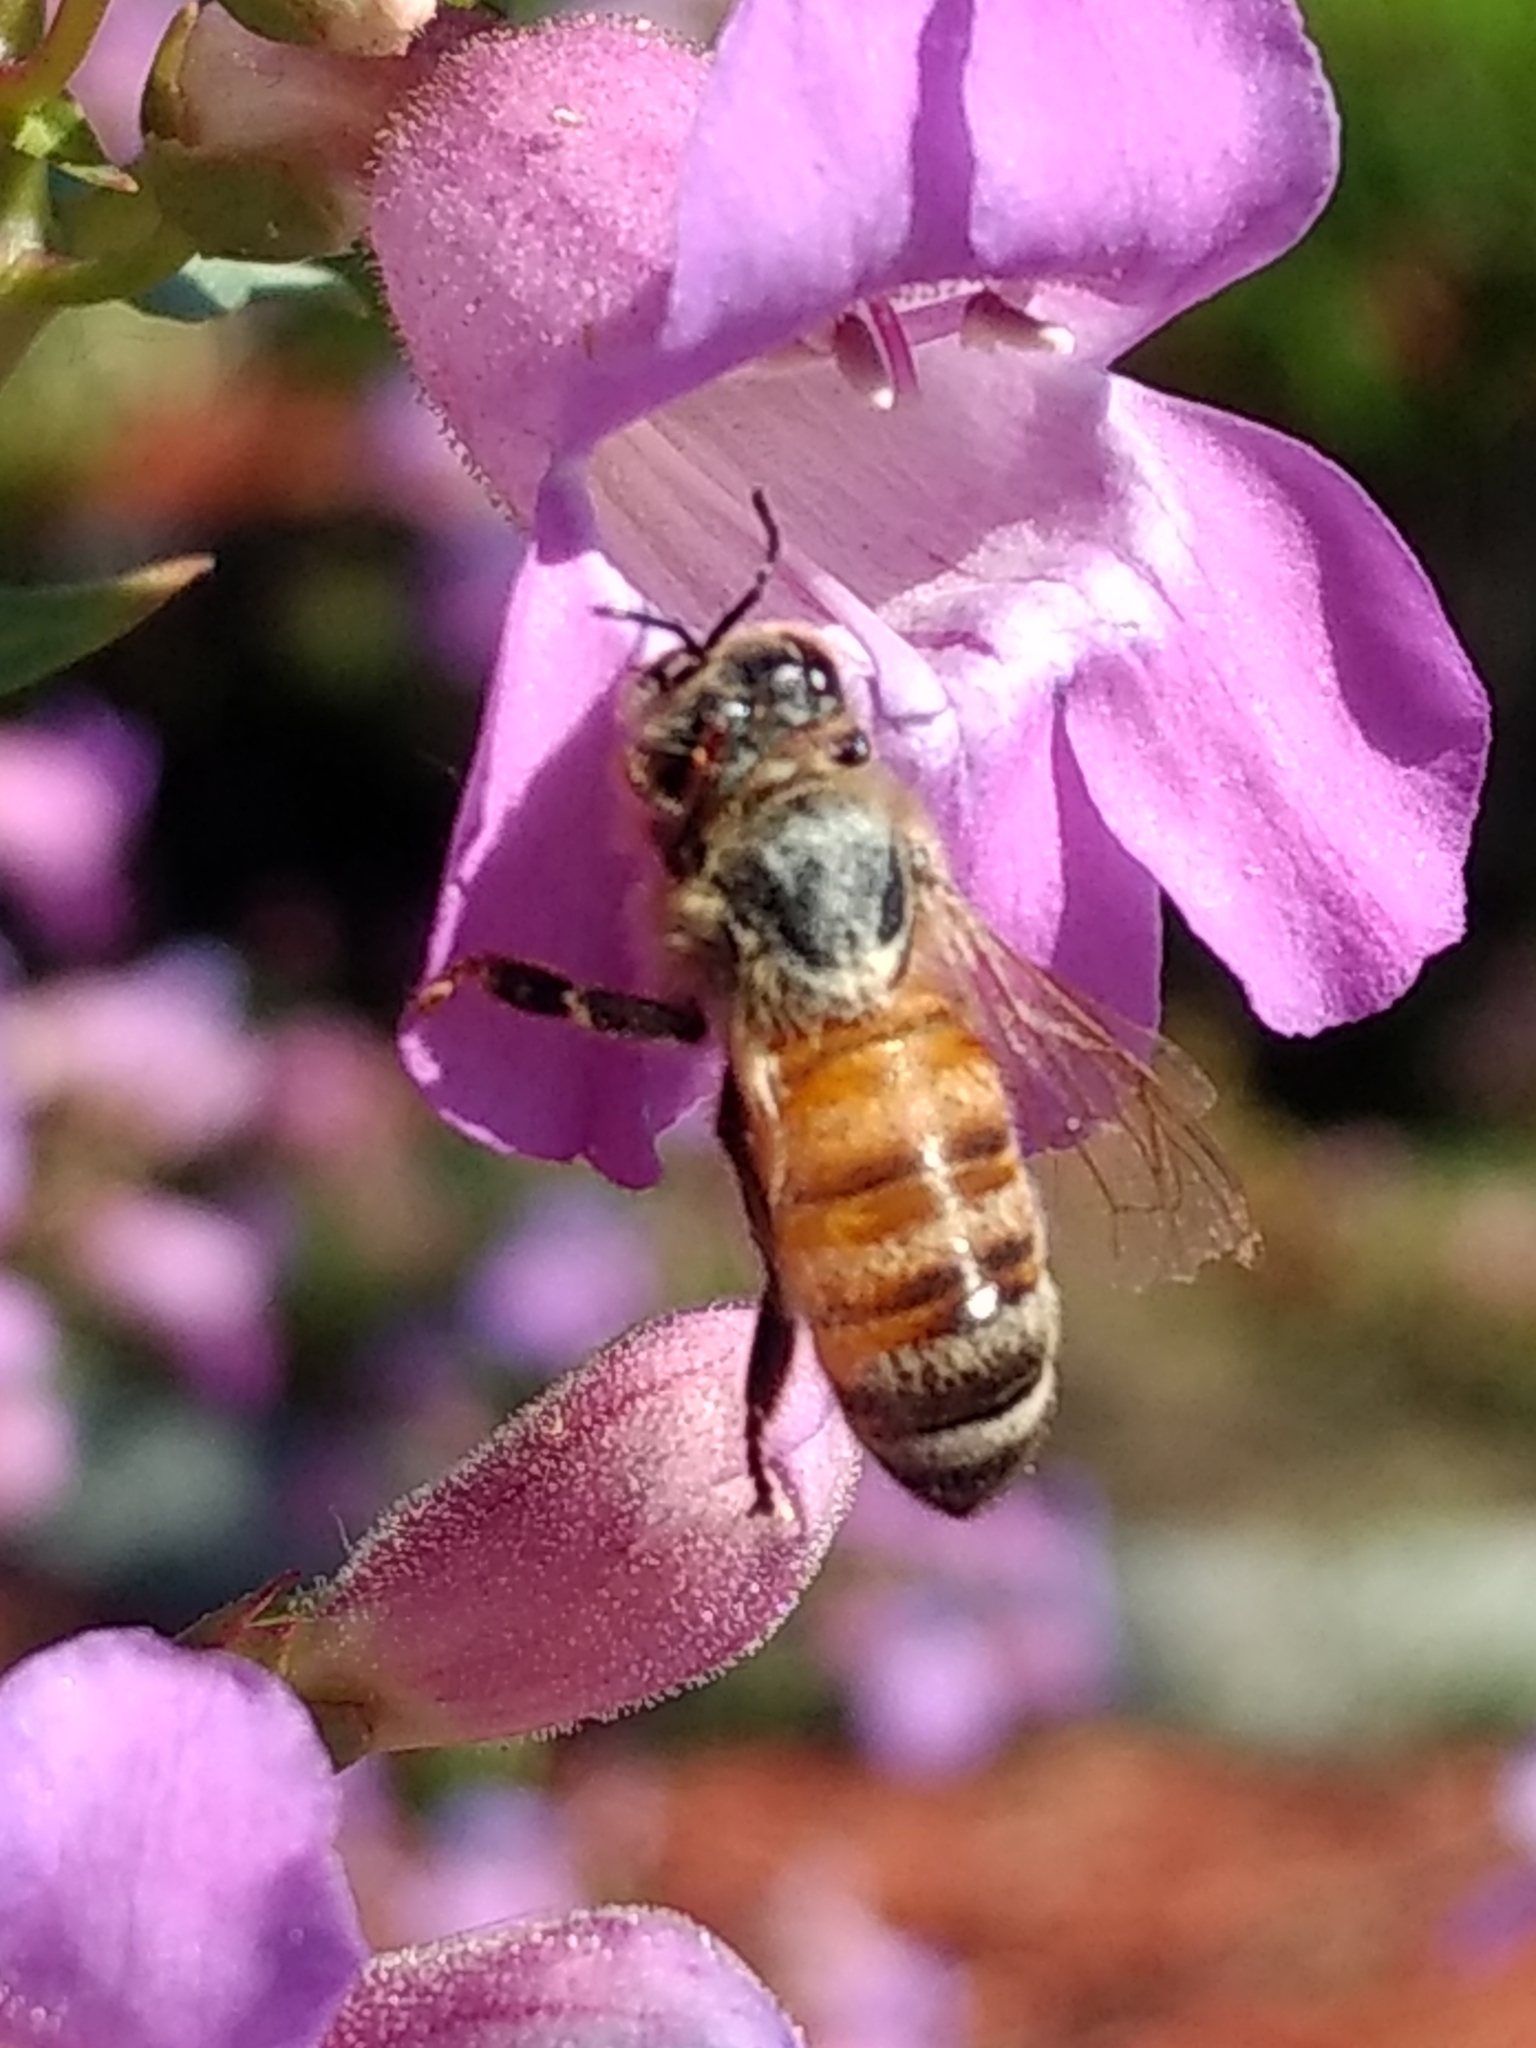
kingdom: Animalia
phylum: Arthropoda
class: Insecta
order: Hymenoptera
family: Apidae
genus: Apis
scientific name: Apis mellifera
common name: Honey bee
